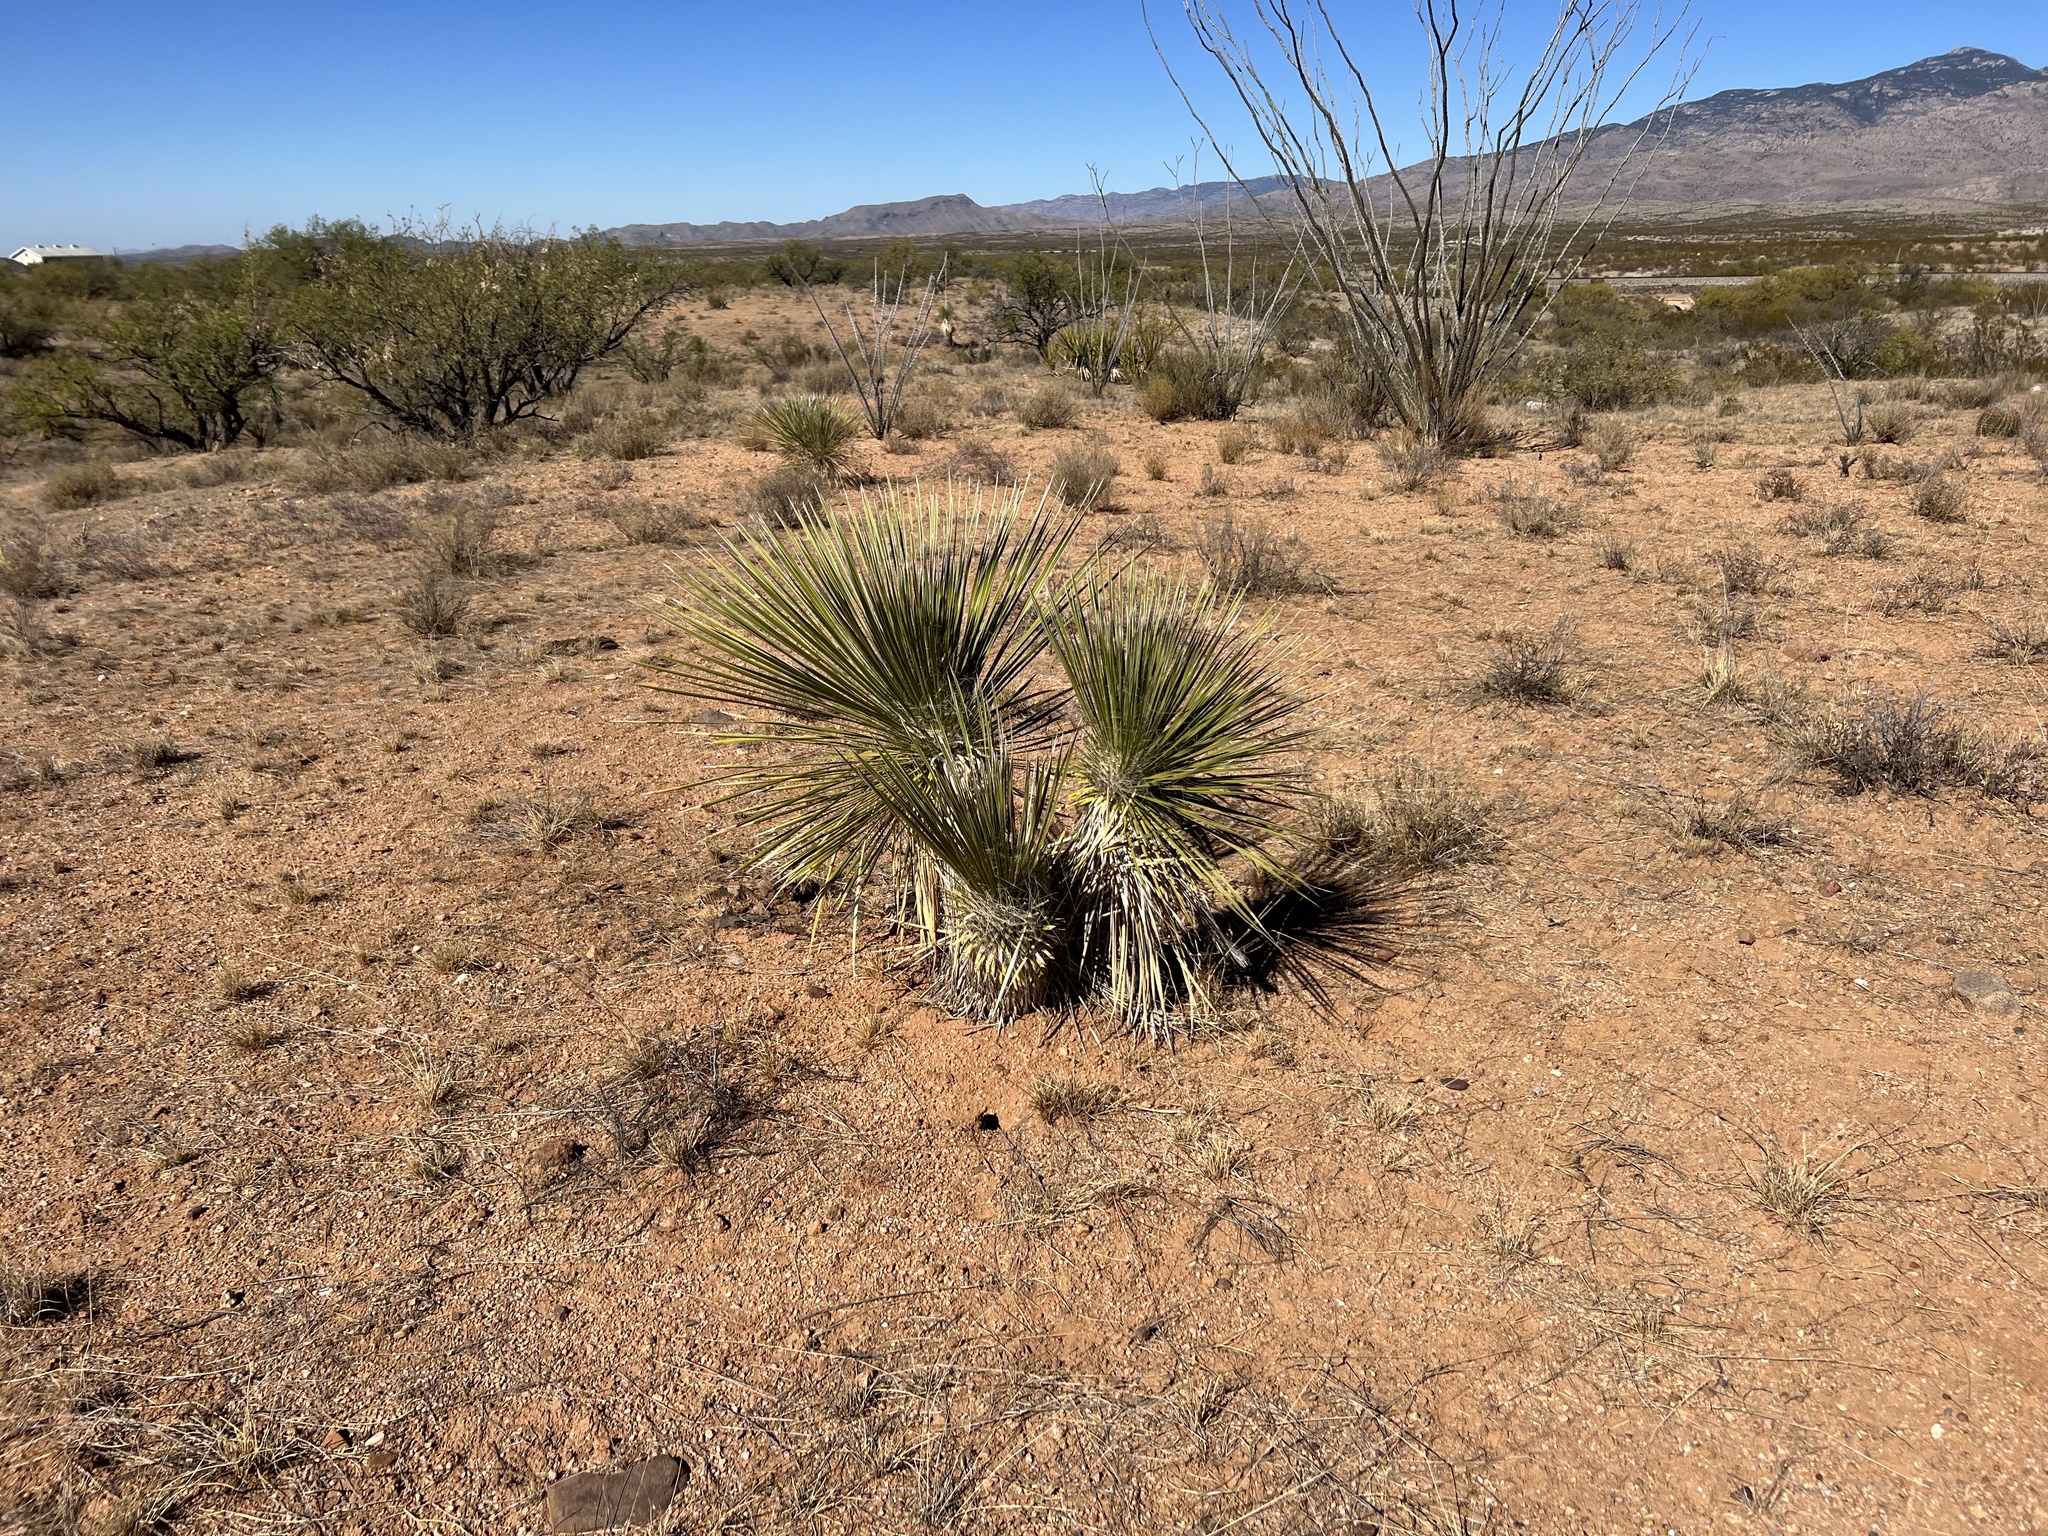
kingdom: Plantae
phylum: Tracheophyta
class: Liliopsida
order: Asparagales
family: Asparagaceae
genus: Yucca
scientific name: Yucca elata
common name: Palmella
